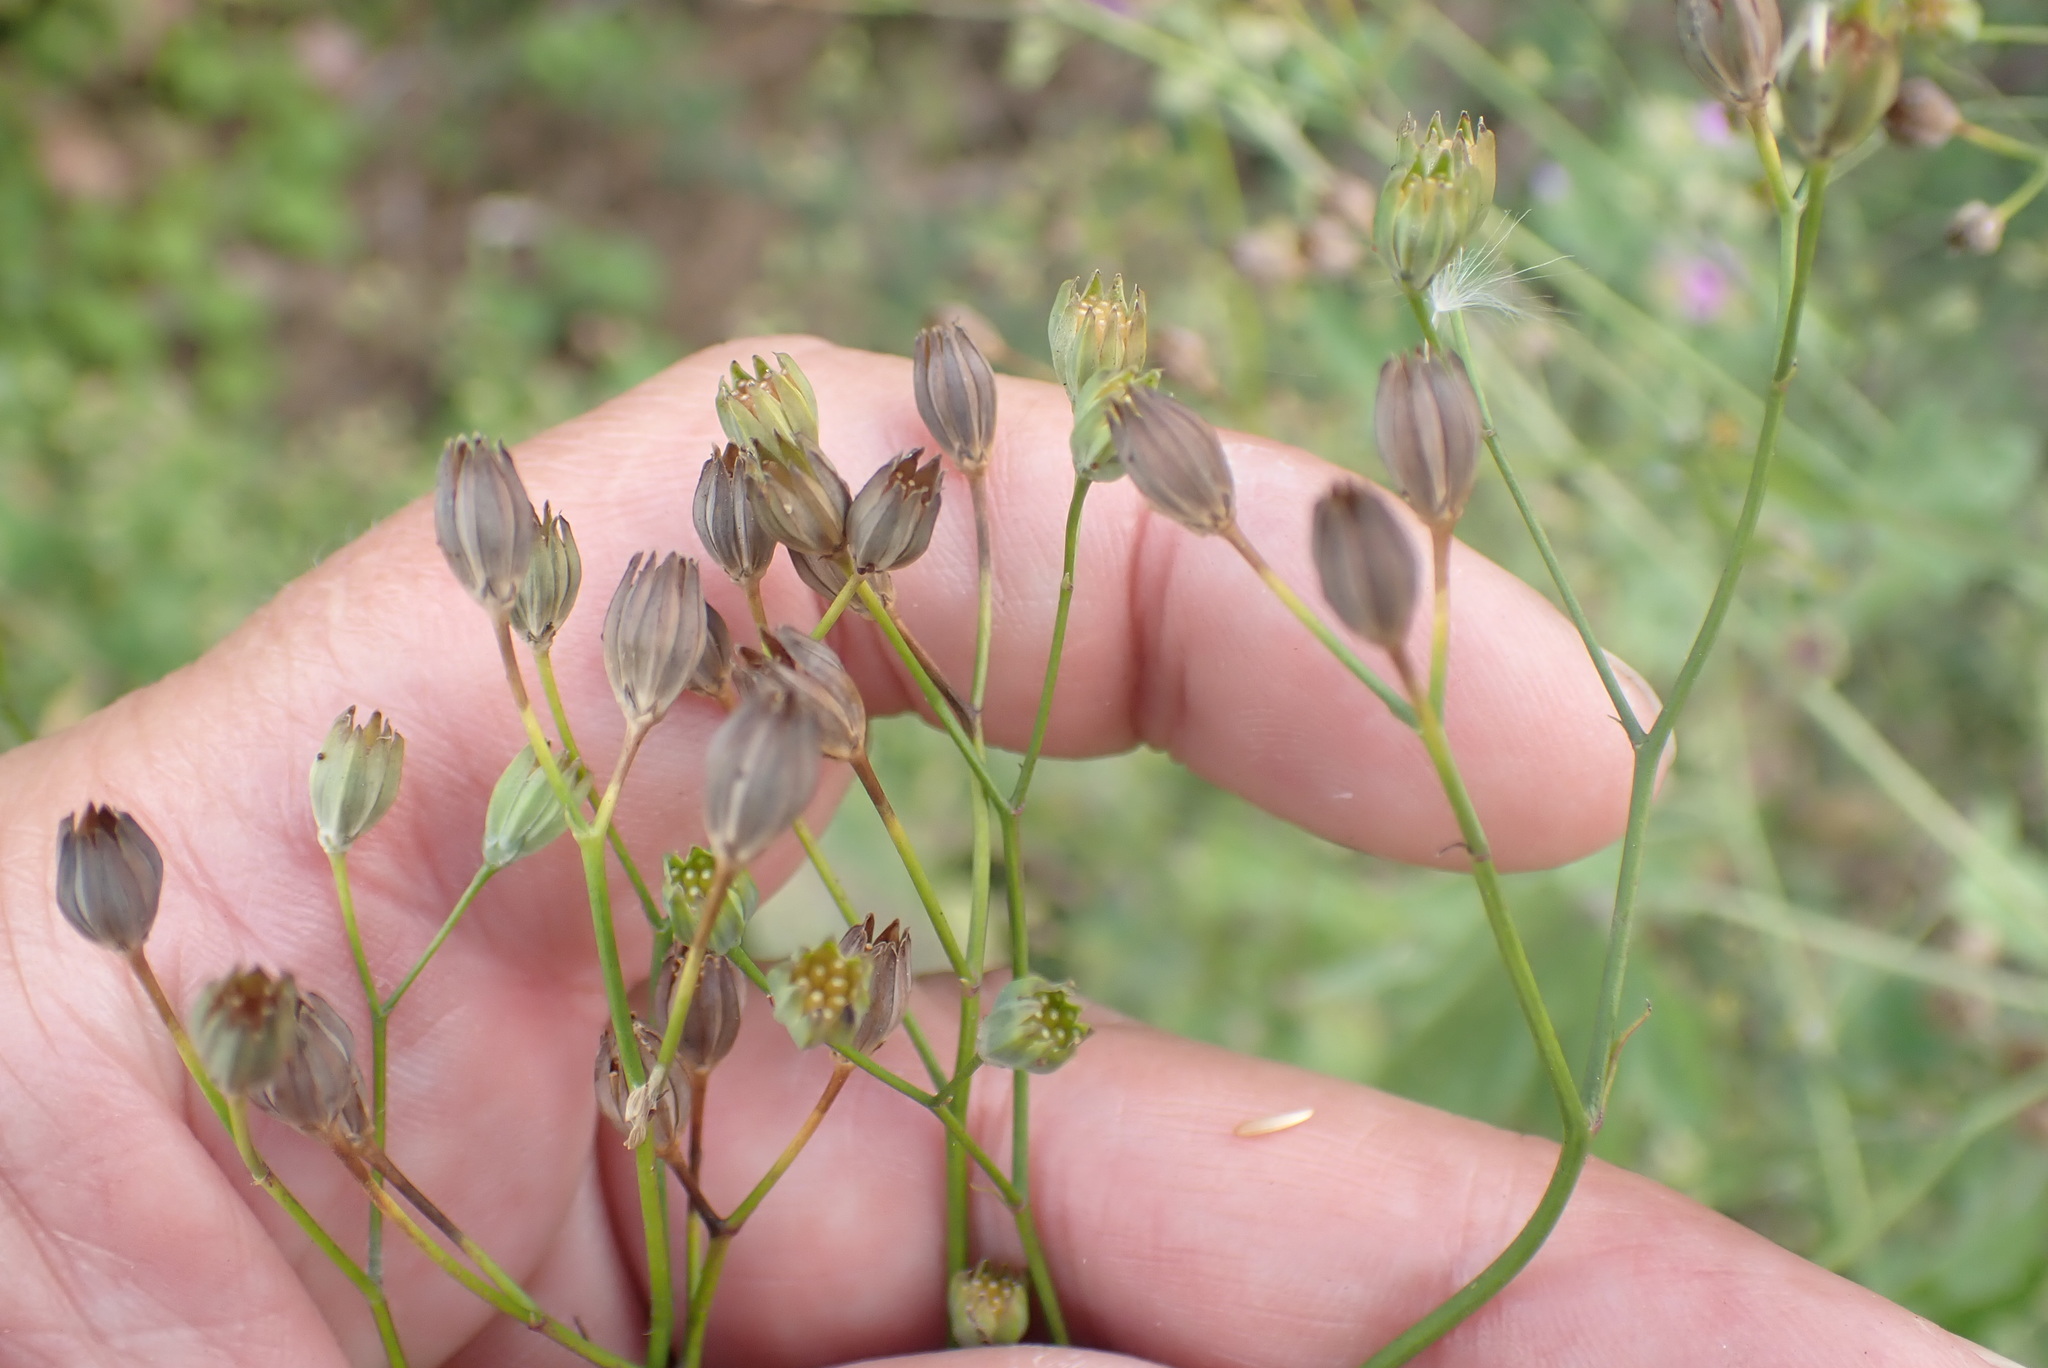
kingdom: Plantae
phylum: Tracheophyta
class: Magnoliopsida
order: Asterales
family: Asteraceae
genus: Lapsana
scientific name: Lapsana communis
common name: Nipplewort
